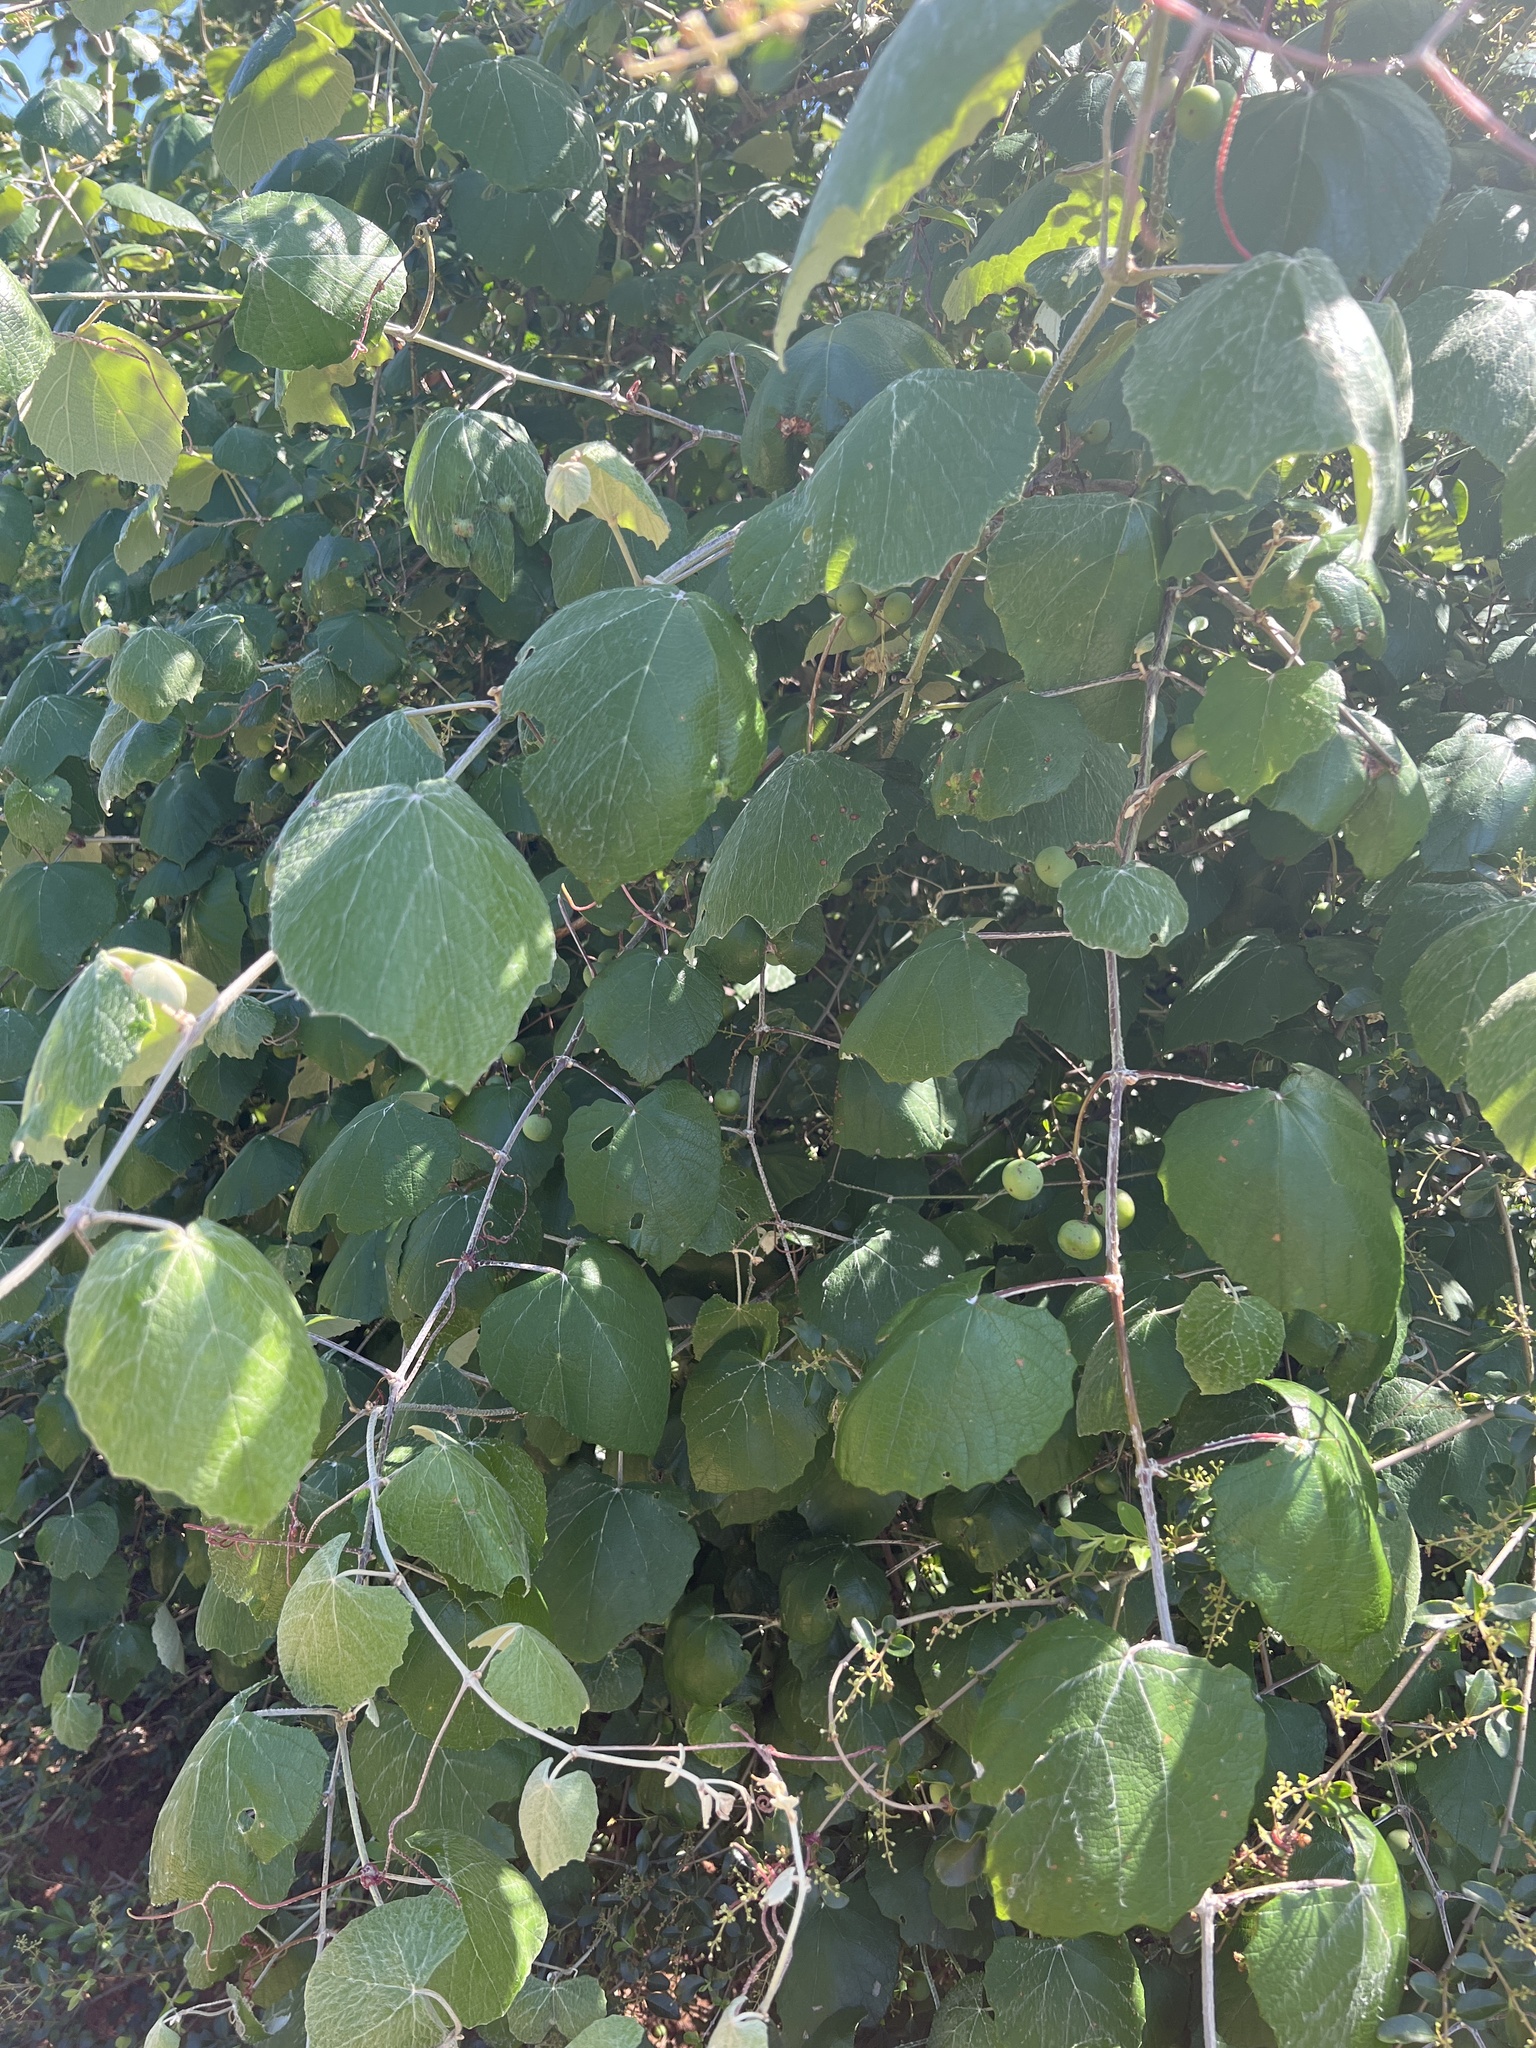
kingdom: Plantae
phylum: Tracheophyta
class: Magnoliopsida
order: Vitales
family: Vitaceae
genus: Vitis
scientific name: Vitis mustangensis
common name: Mustang grape
